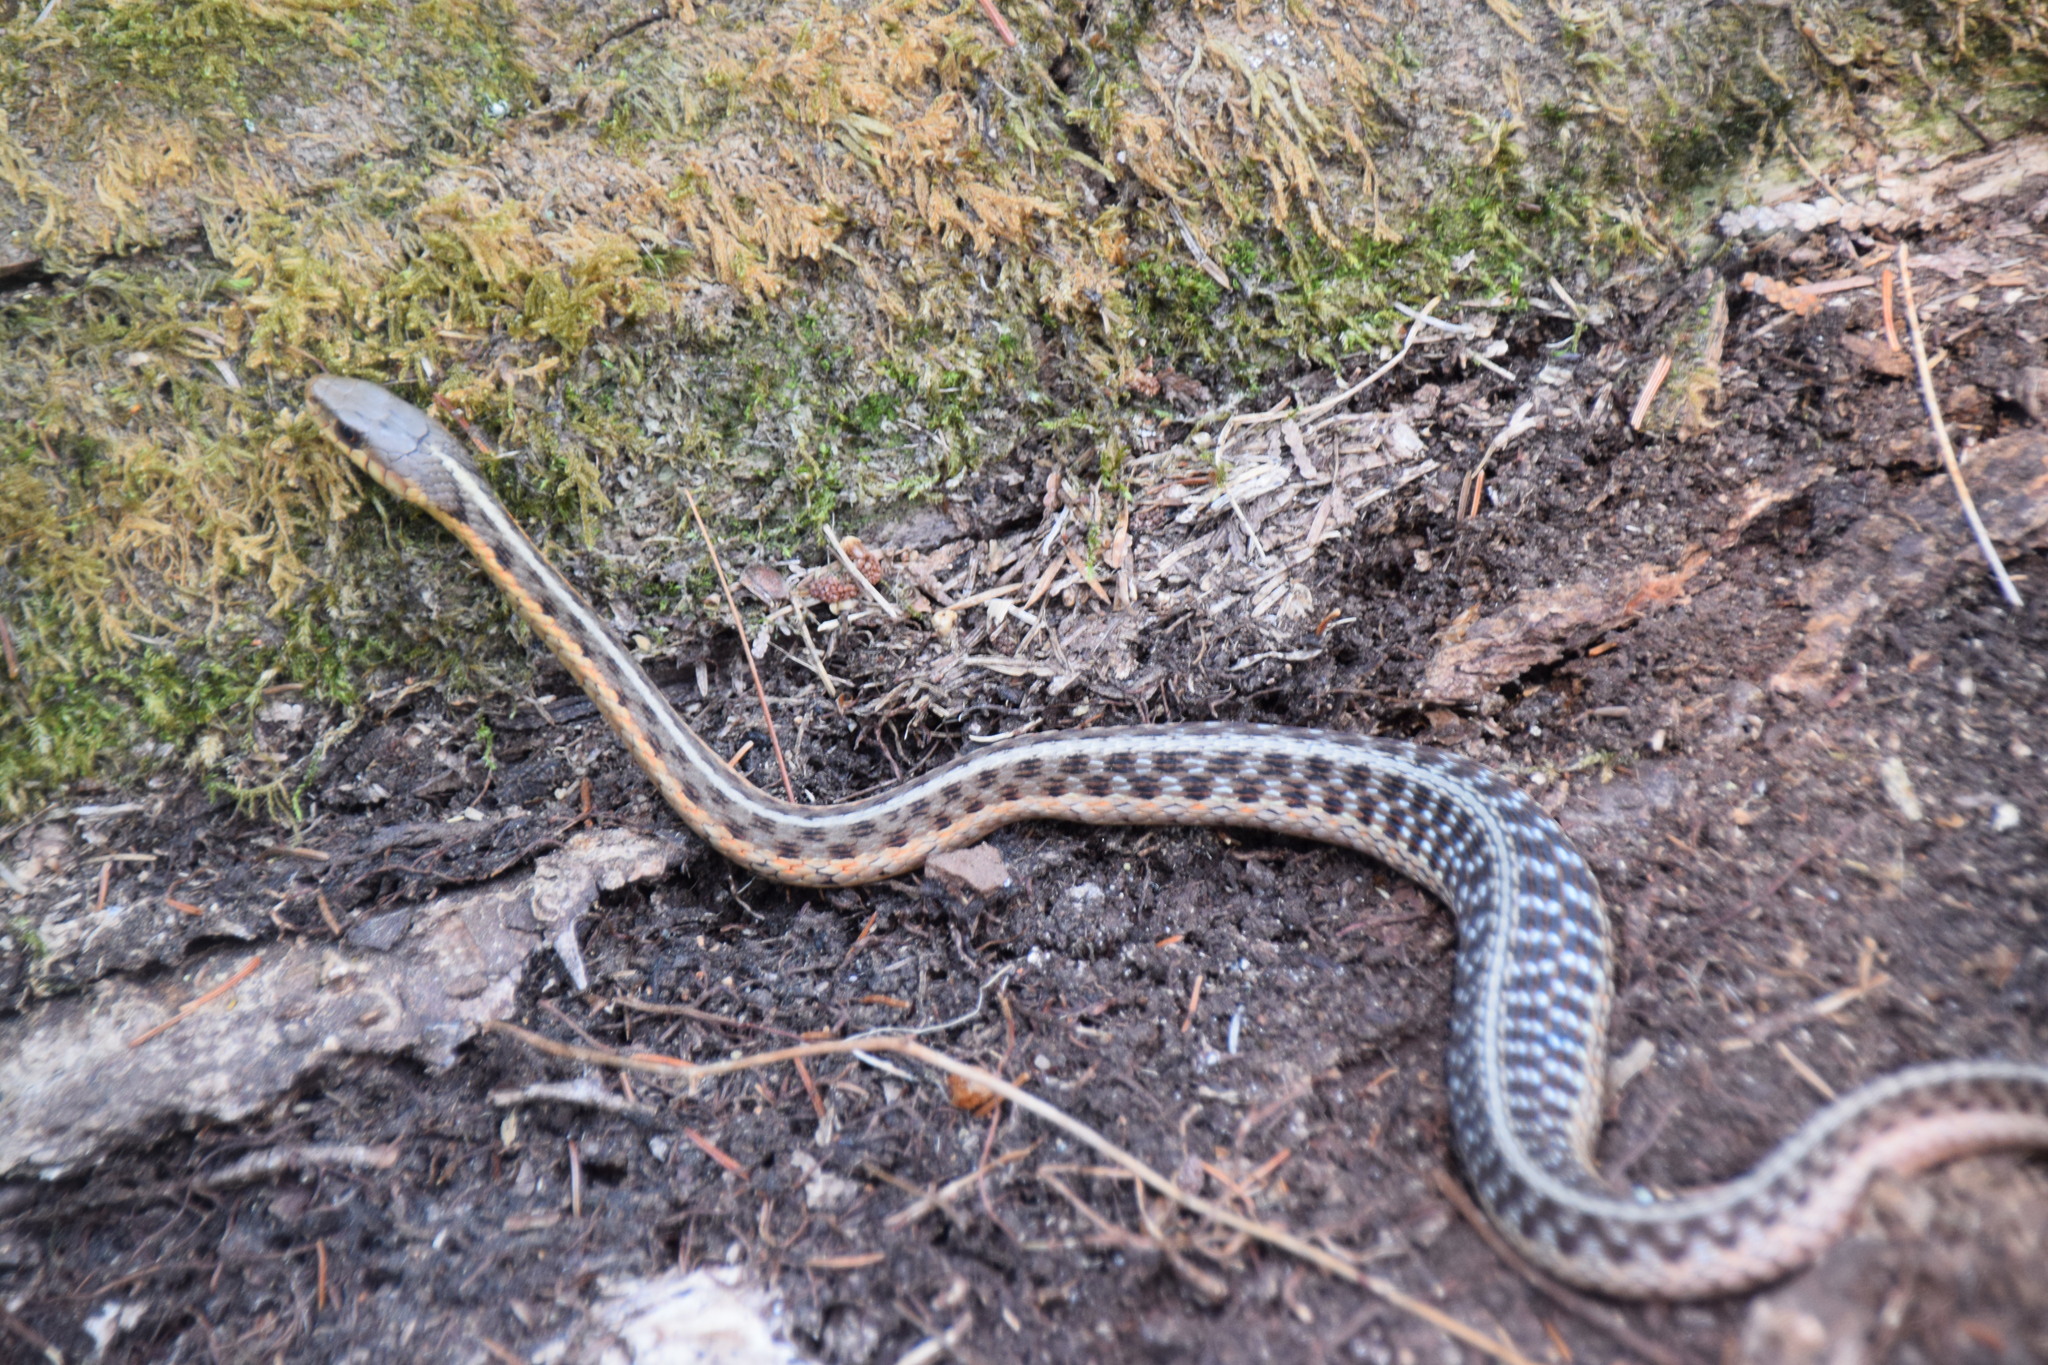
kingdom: Animalia
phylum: Chordata
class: Squamata
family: Colubridae
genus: Thamnophis
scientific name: Thamnophis sirtalis
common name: Common garter snake
